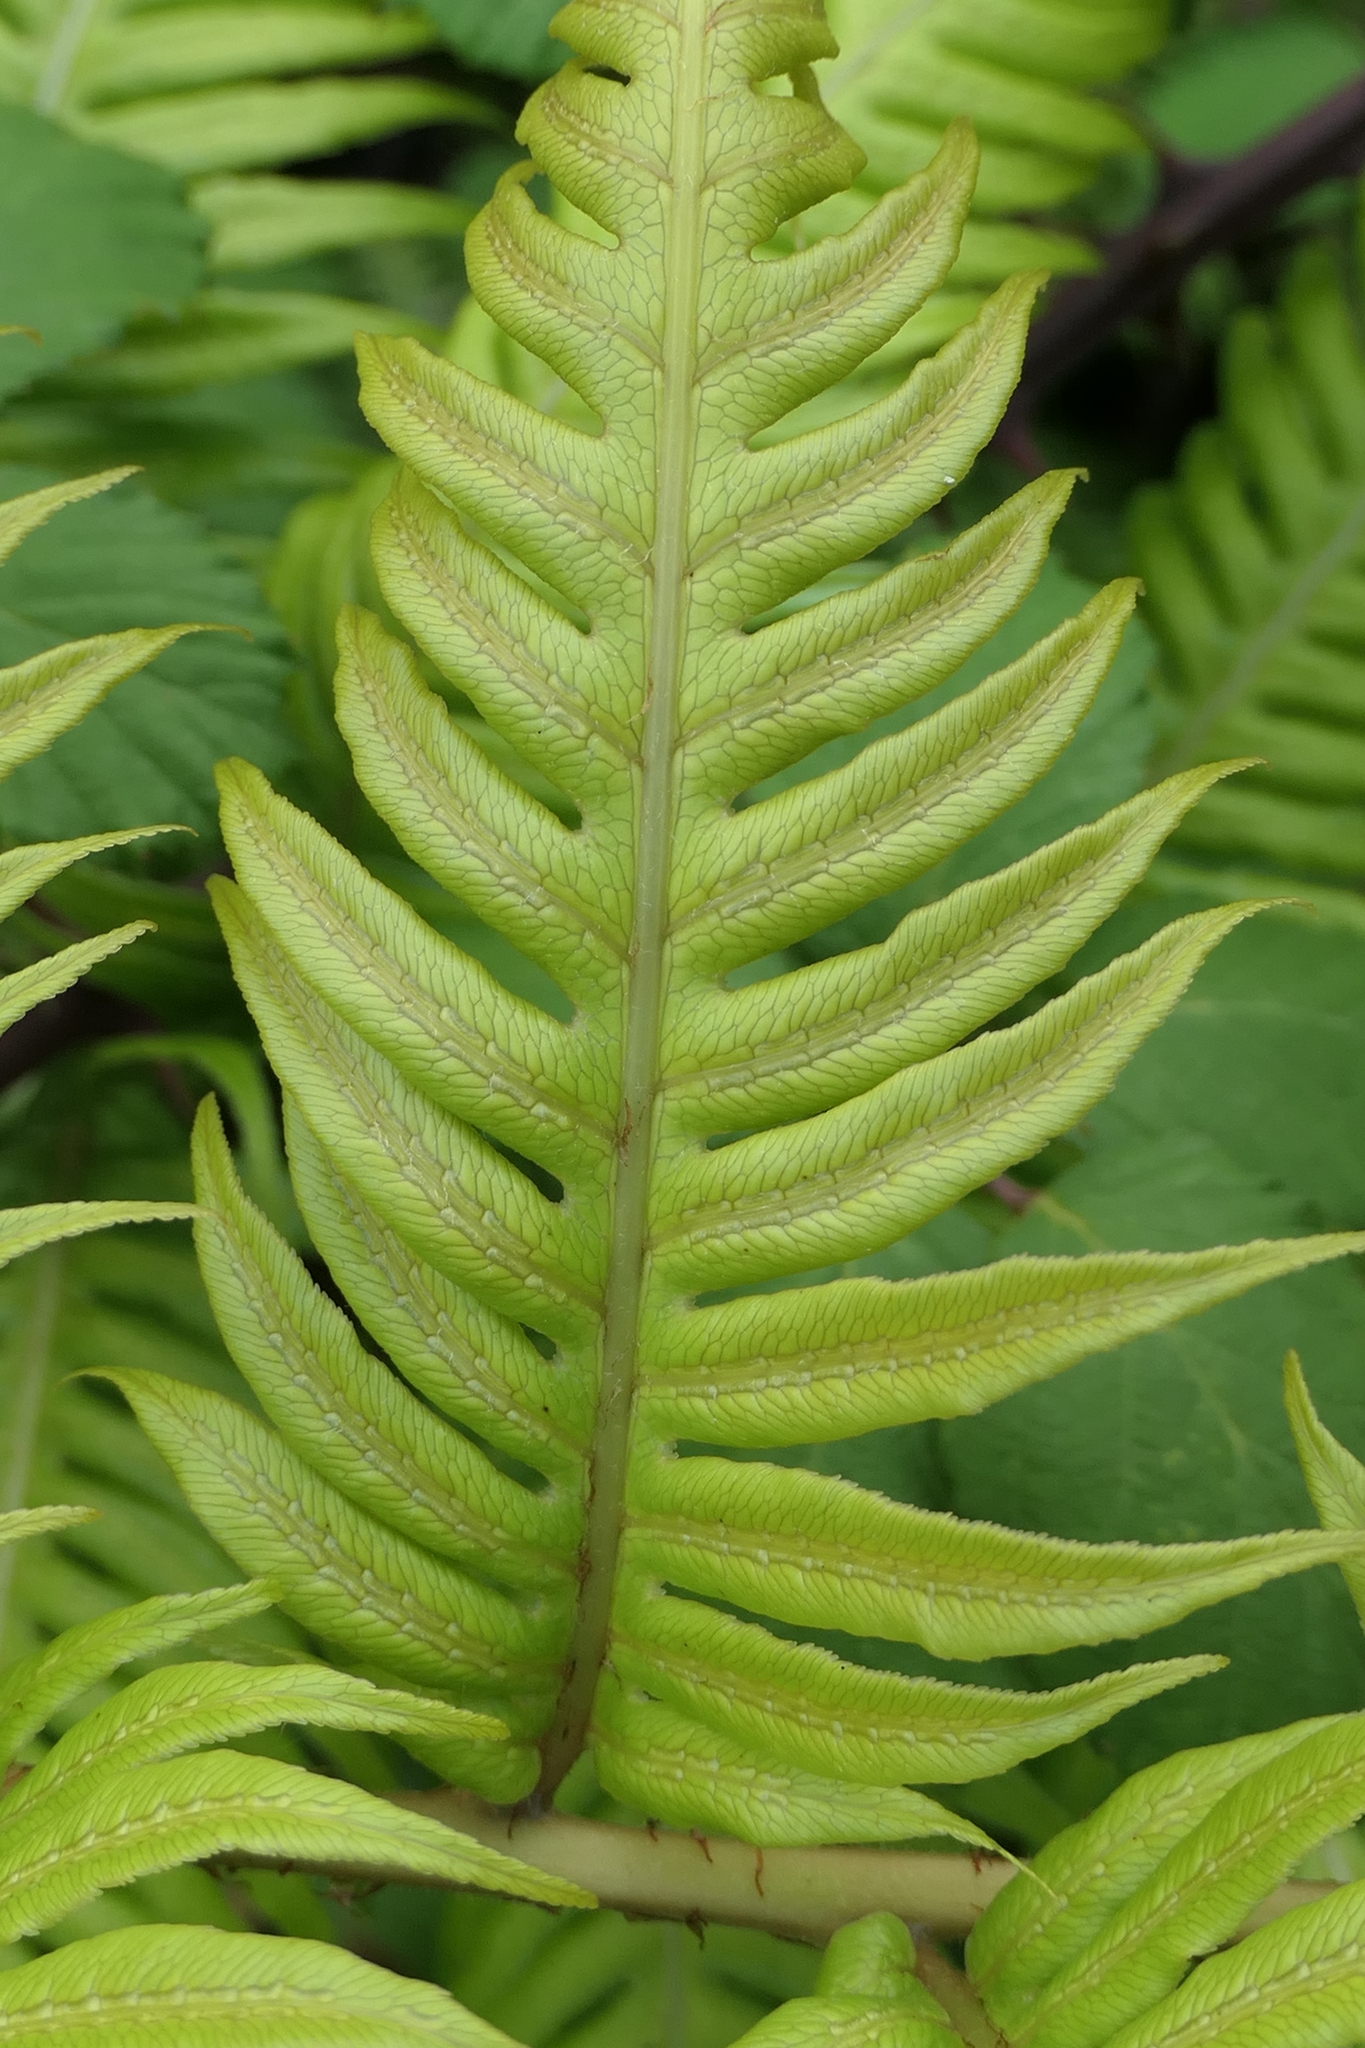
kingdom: Plantae
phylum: Tracheophyta
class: Polypodiopsida
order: Polypodiales
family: Blechnaceae
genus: Woodwardia
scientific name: Woodwardia radicans
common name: Rooting chainfern
